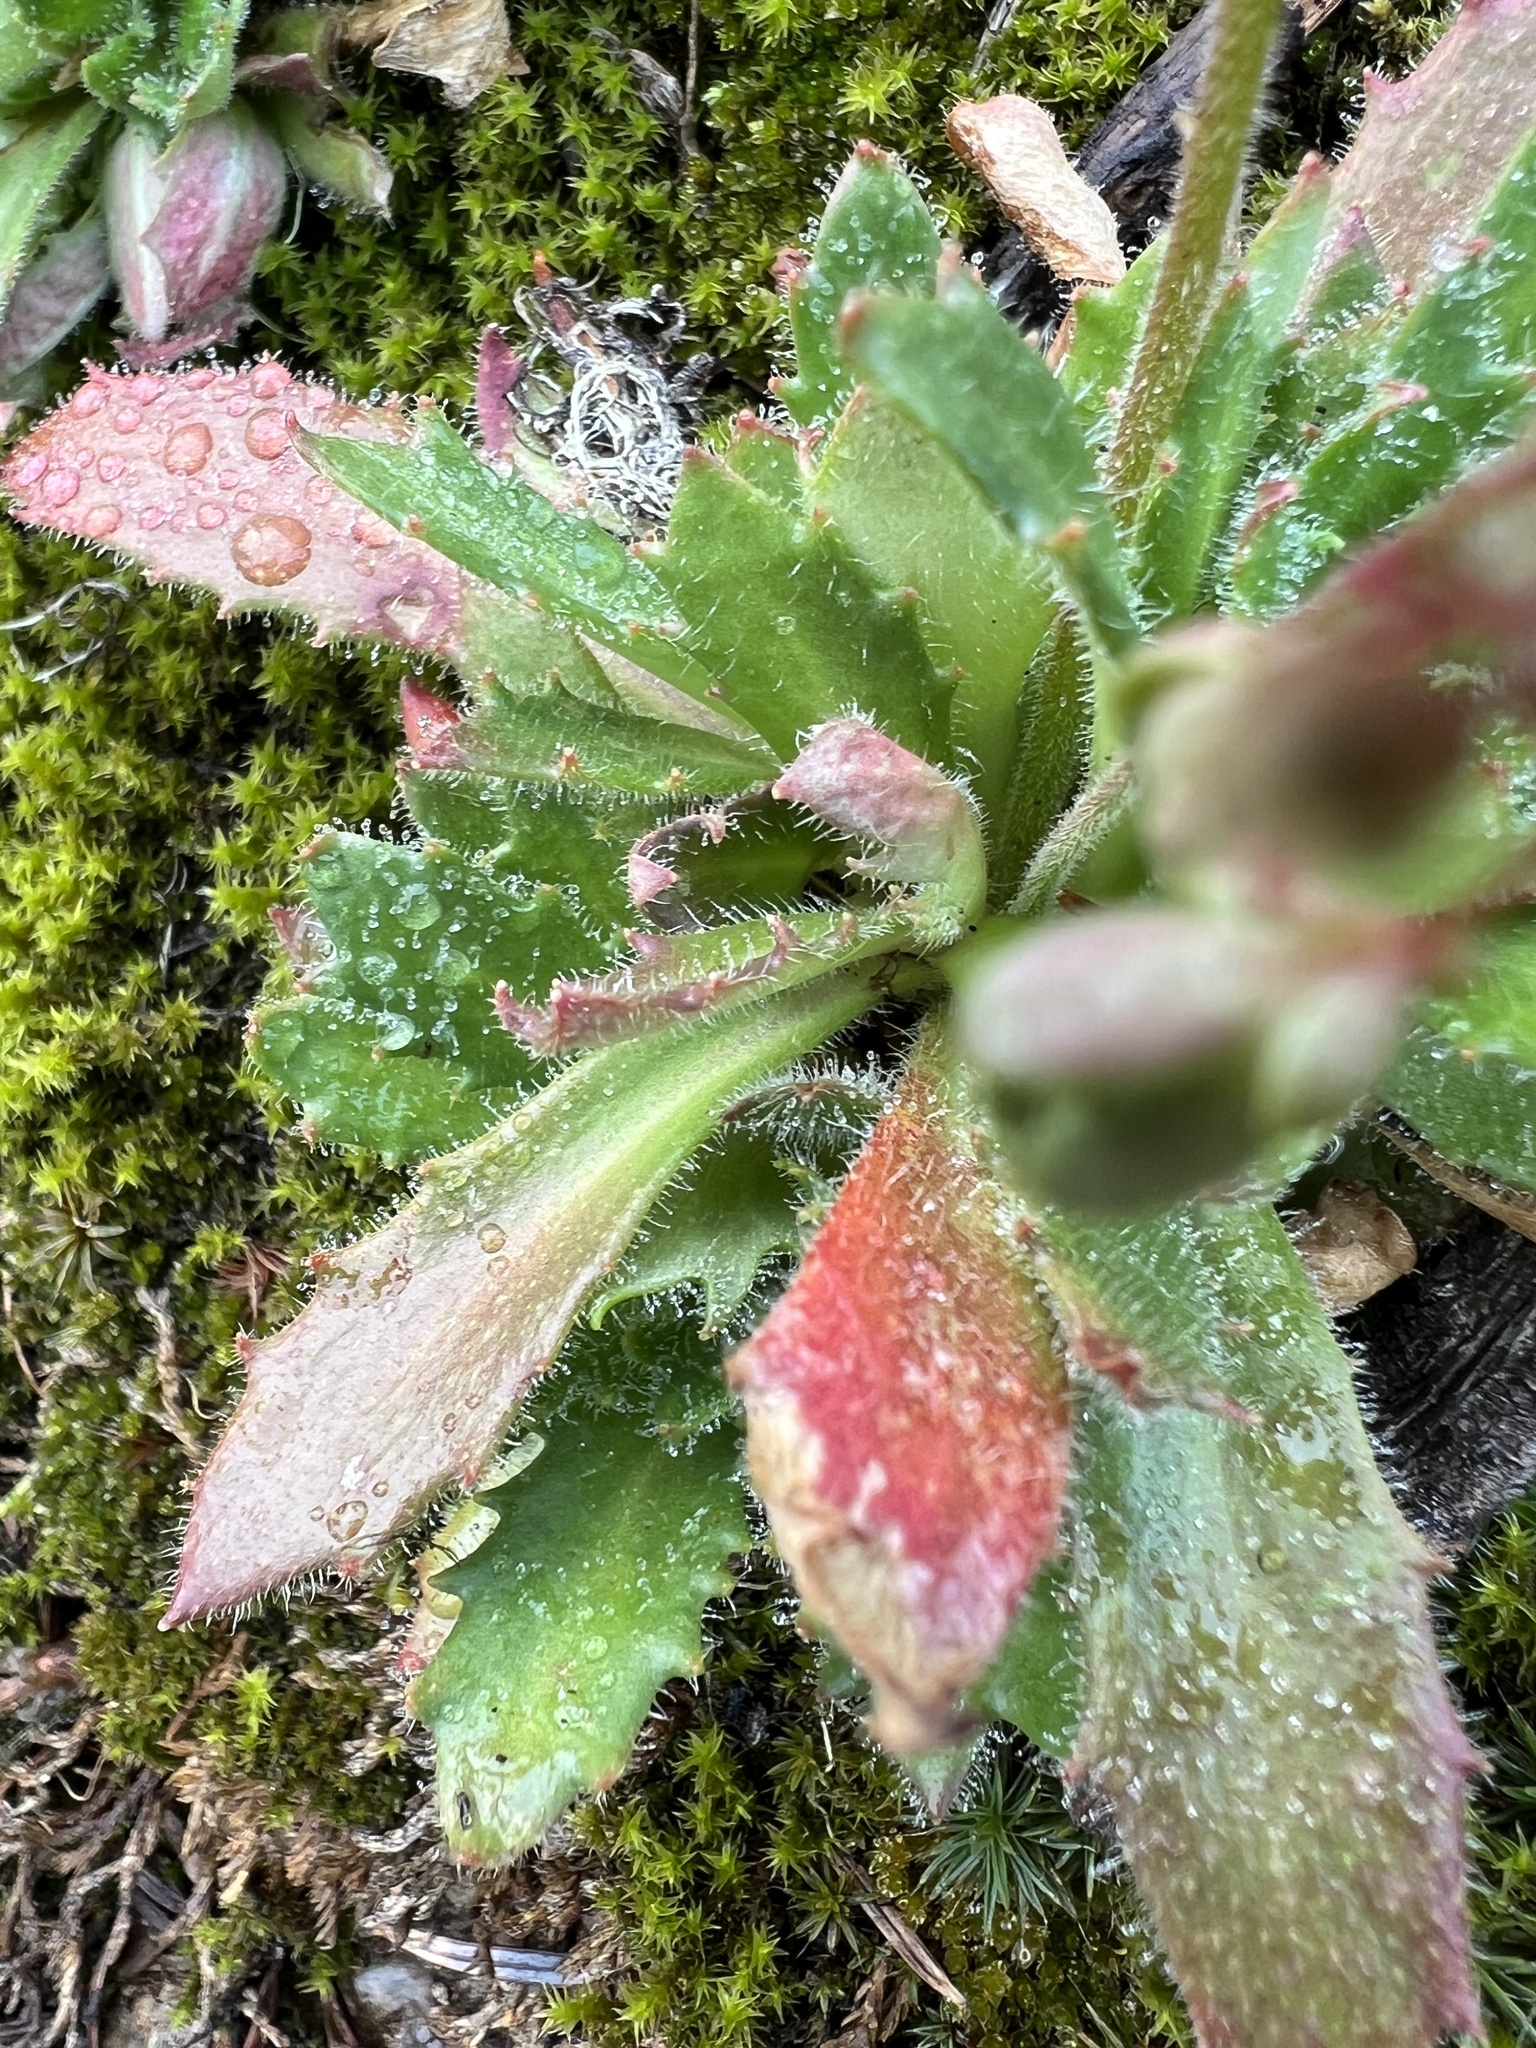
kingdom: Plantae
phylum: Tracheophyta
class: Magnoliopsida
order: Saxifragales
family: Saxifragaceae
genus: Micranthes
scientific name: Micranthes ferruginea
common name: Rusty saxifrage
